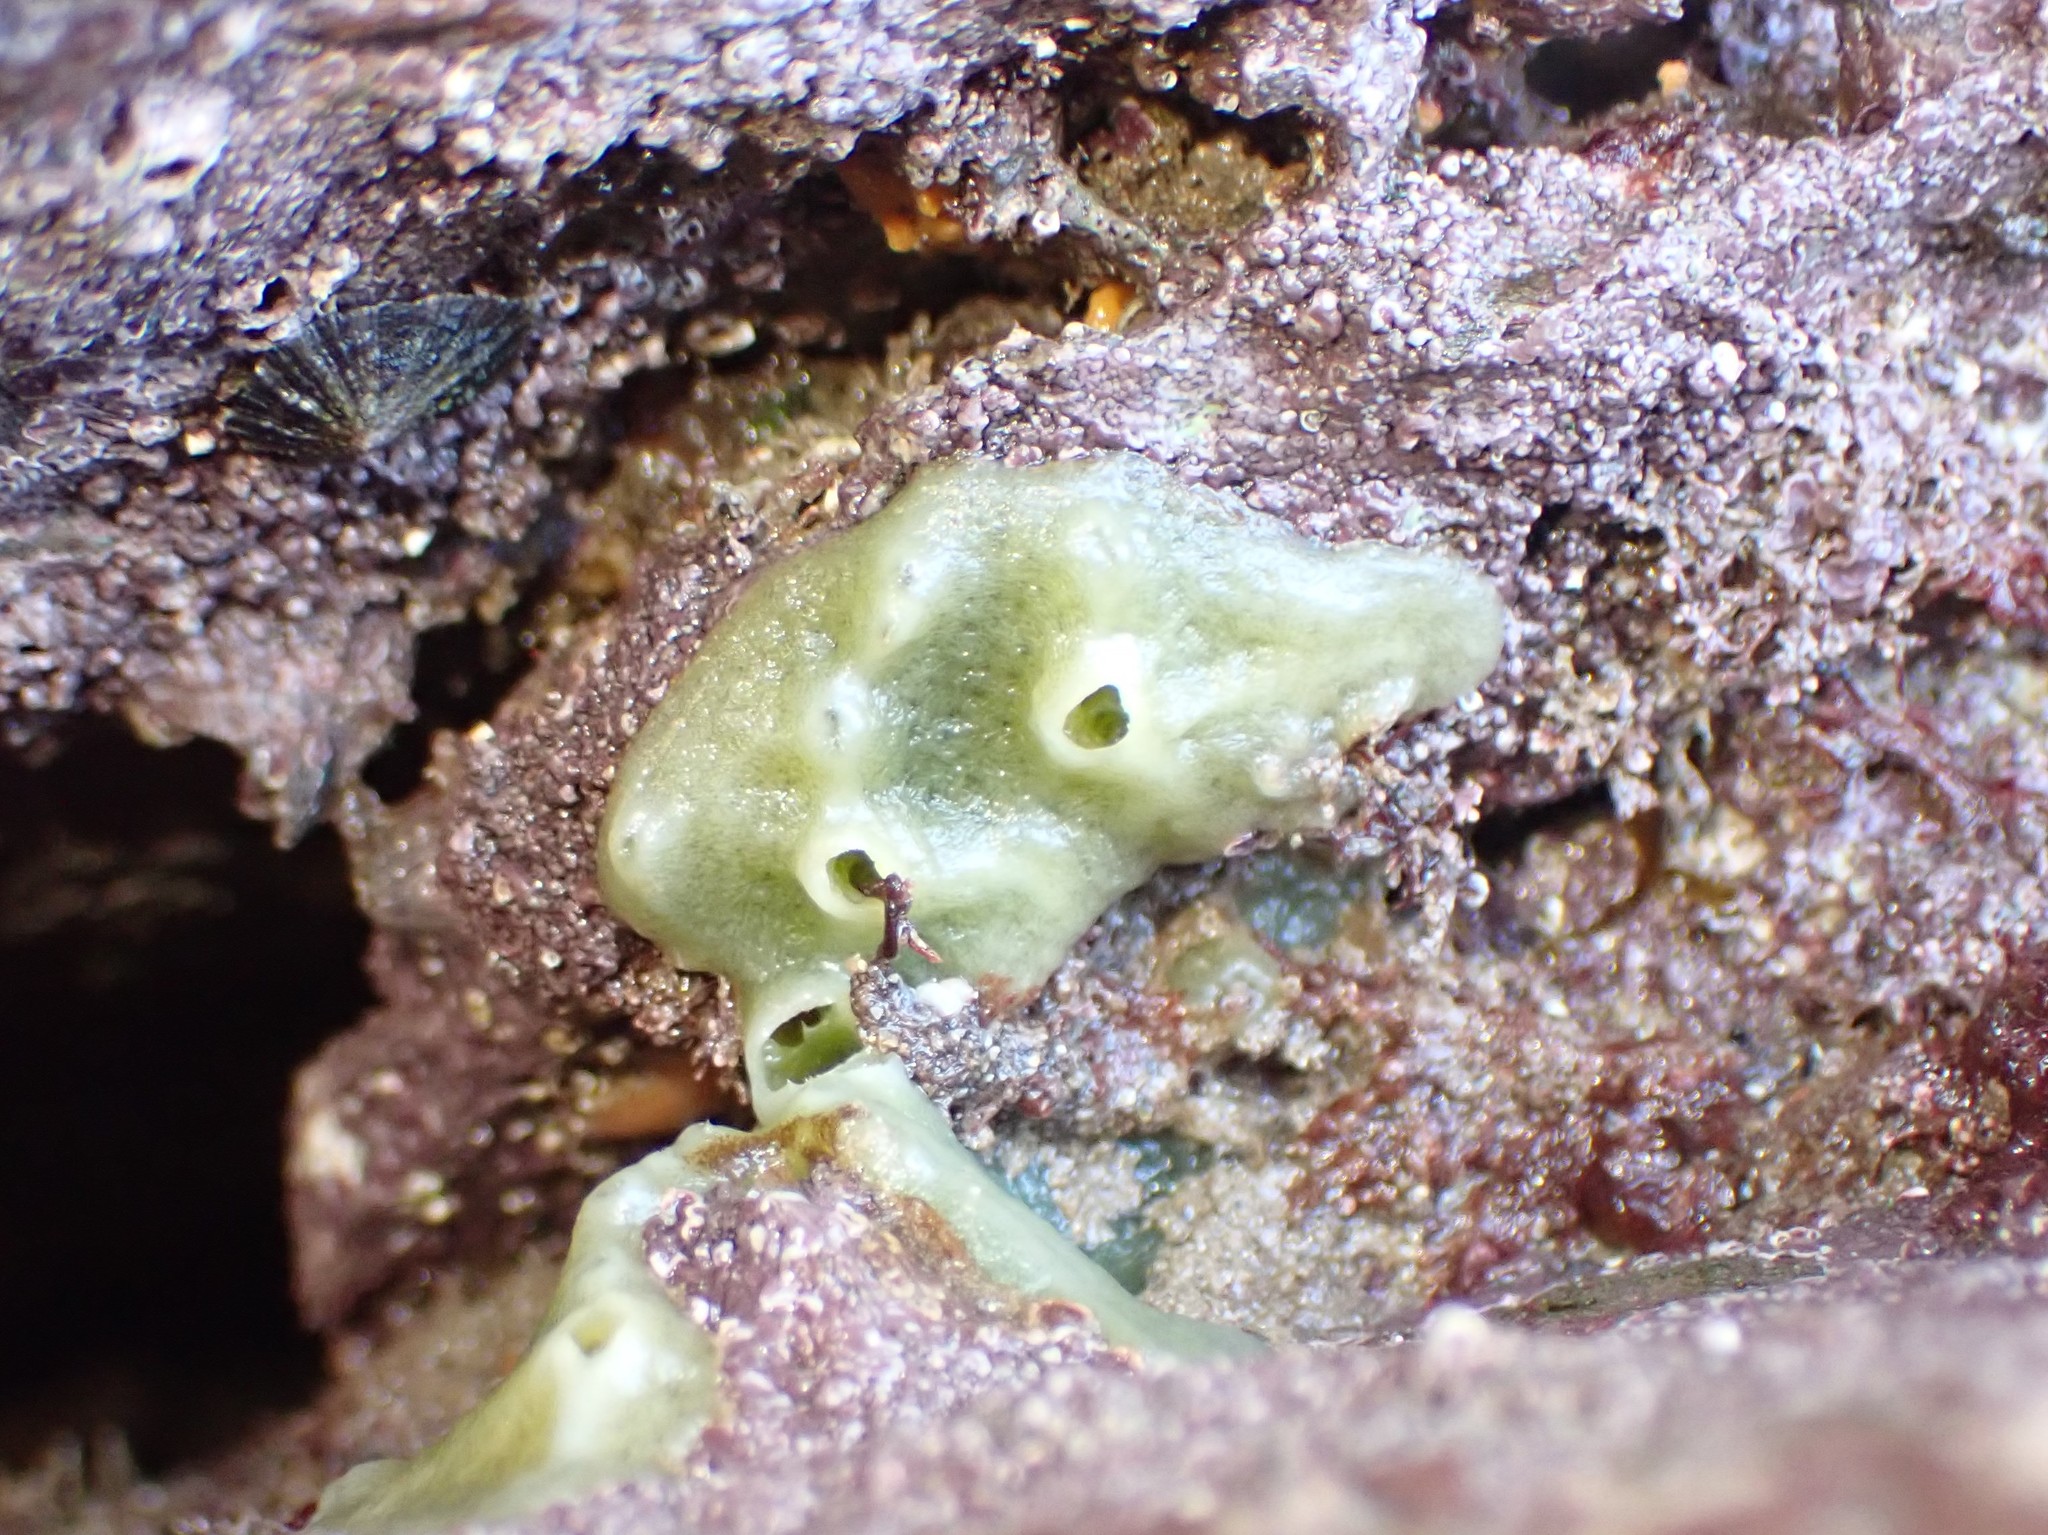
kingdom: Animalia
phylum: Porifera
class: Demospongiae
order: Suberitida
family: Halichondriidae
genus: Halichondria
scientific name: Halichondria panicea
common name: Breadcrumb sponge
